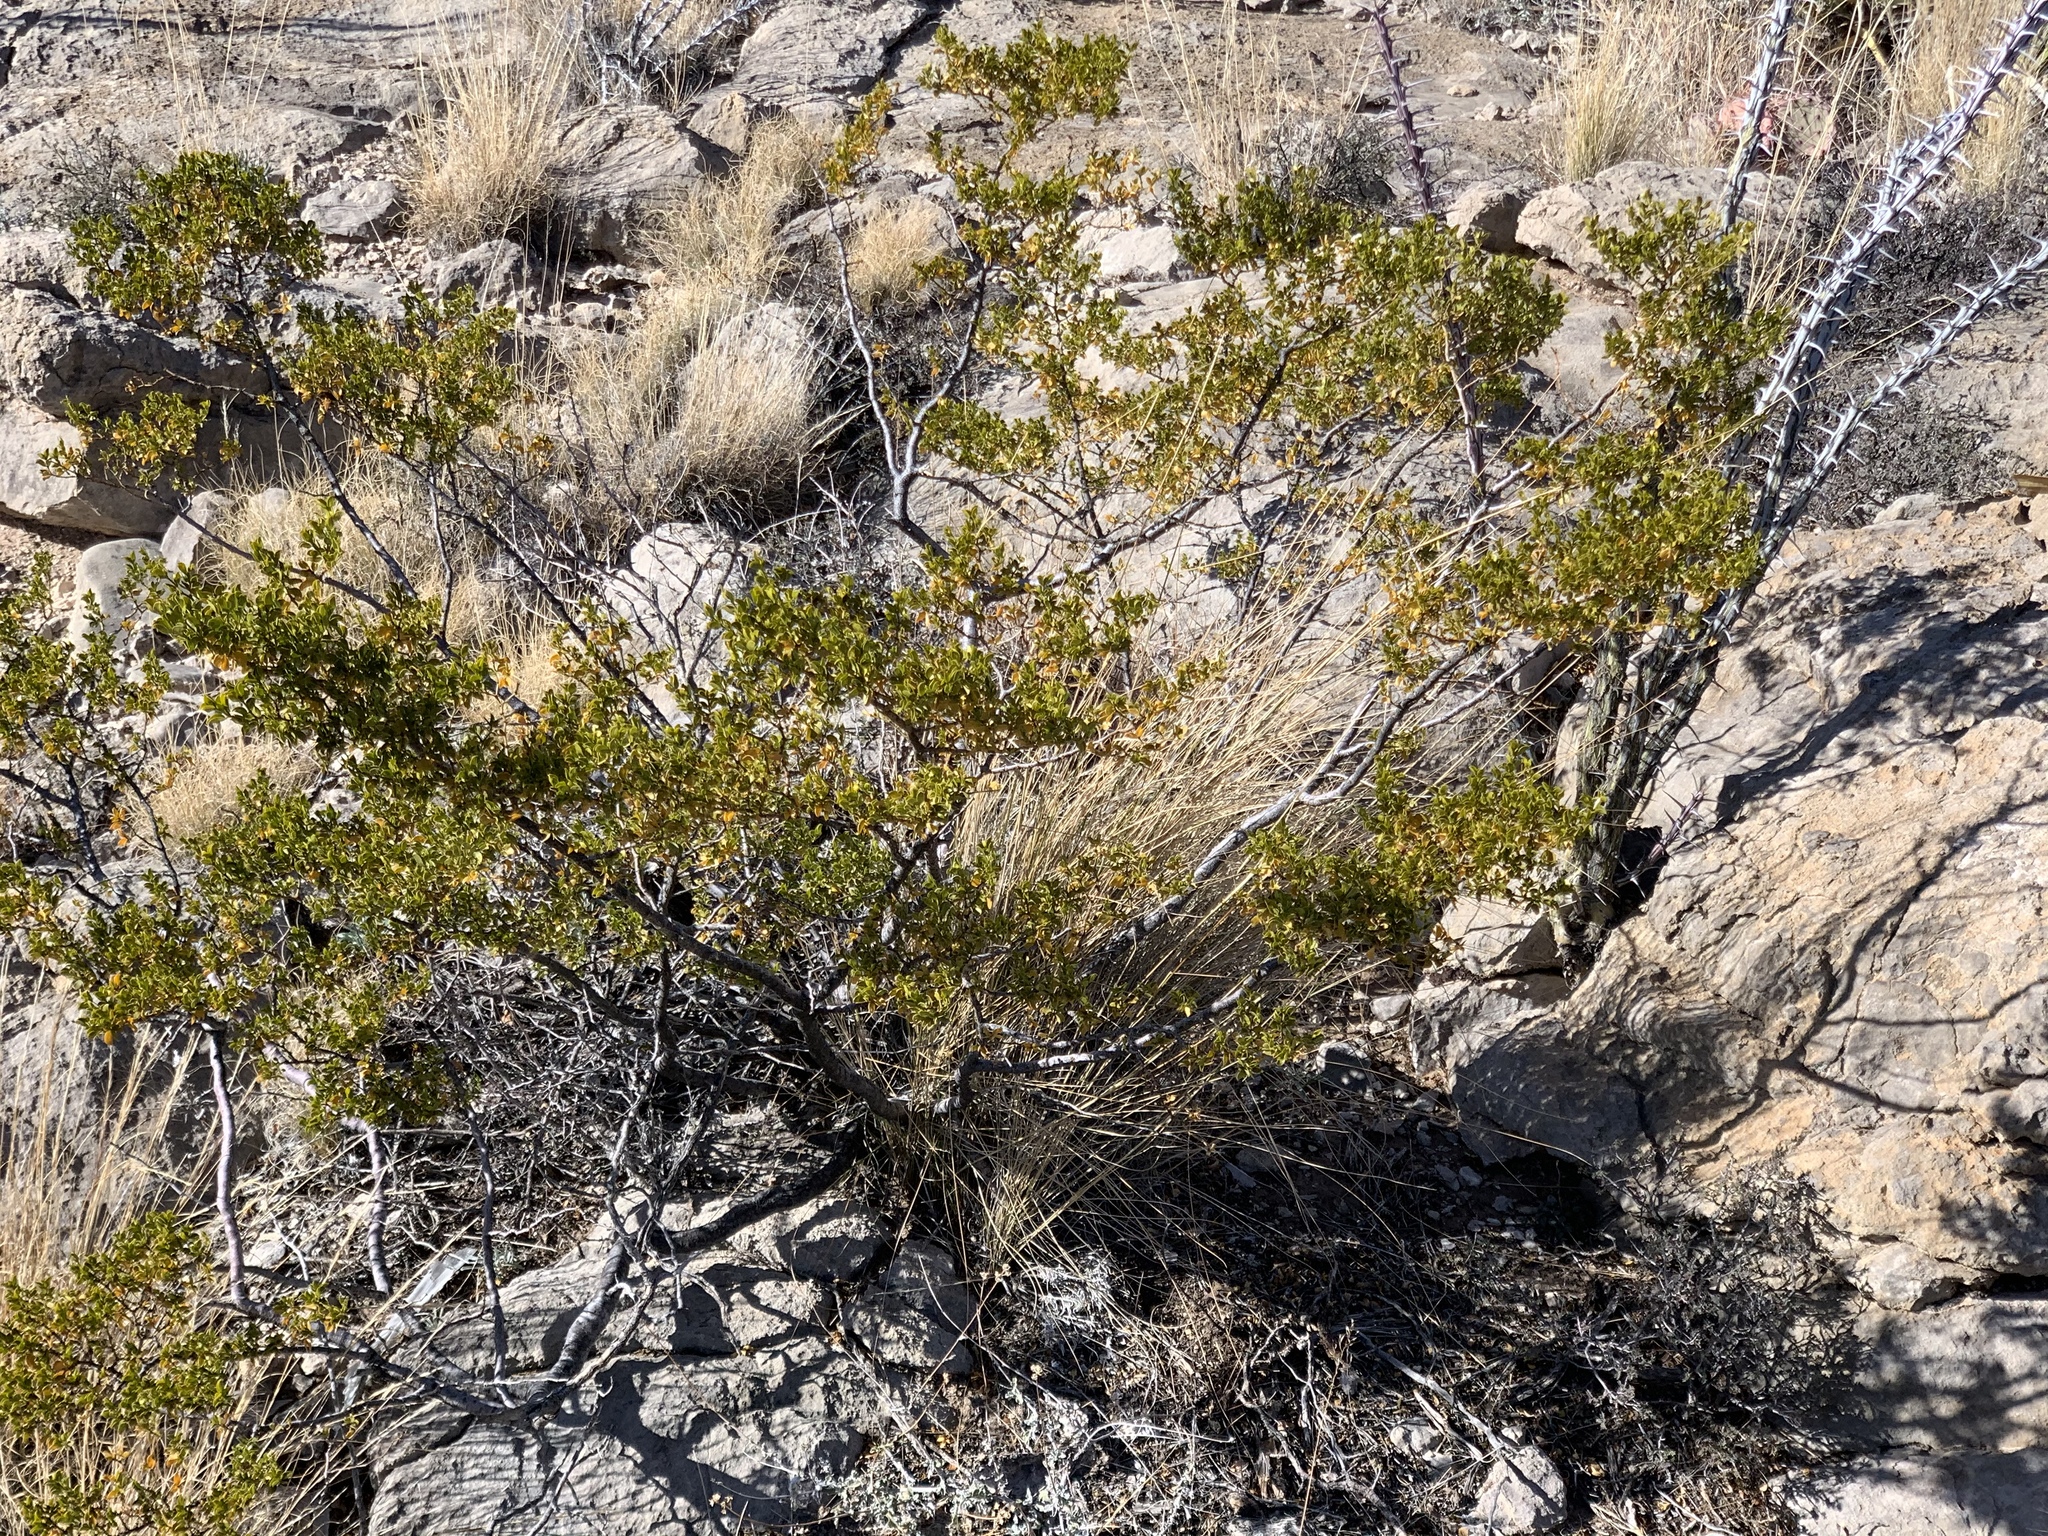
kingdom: Plantae
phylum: Tracheophyta
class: Magnoliopsida
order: Zygophyllales
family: Zygophyllaceae
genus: Larrea
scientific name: Larrea tridentata
